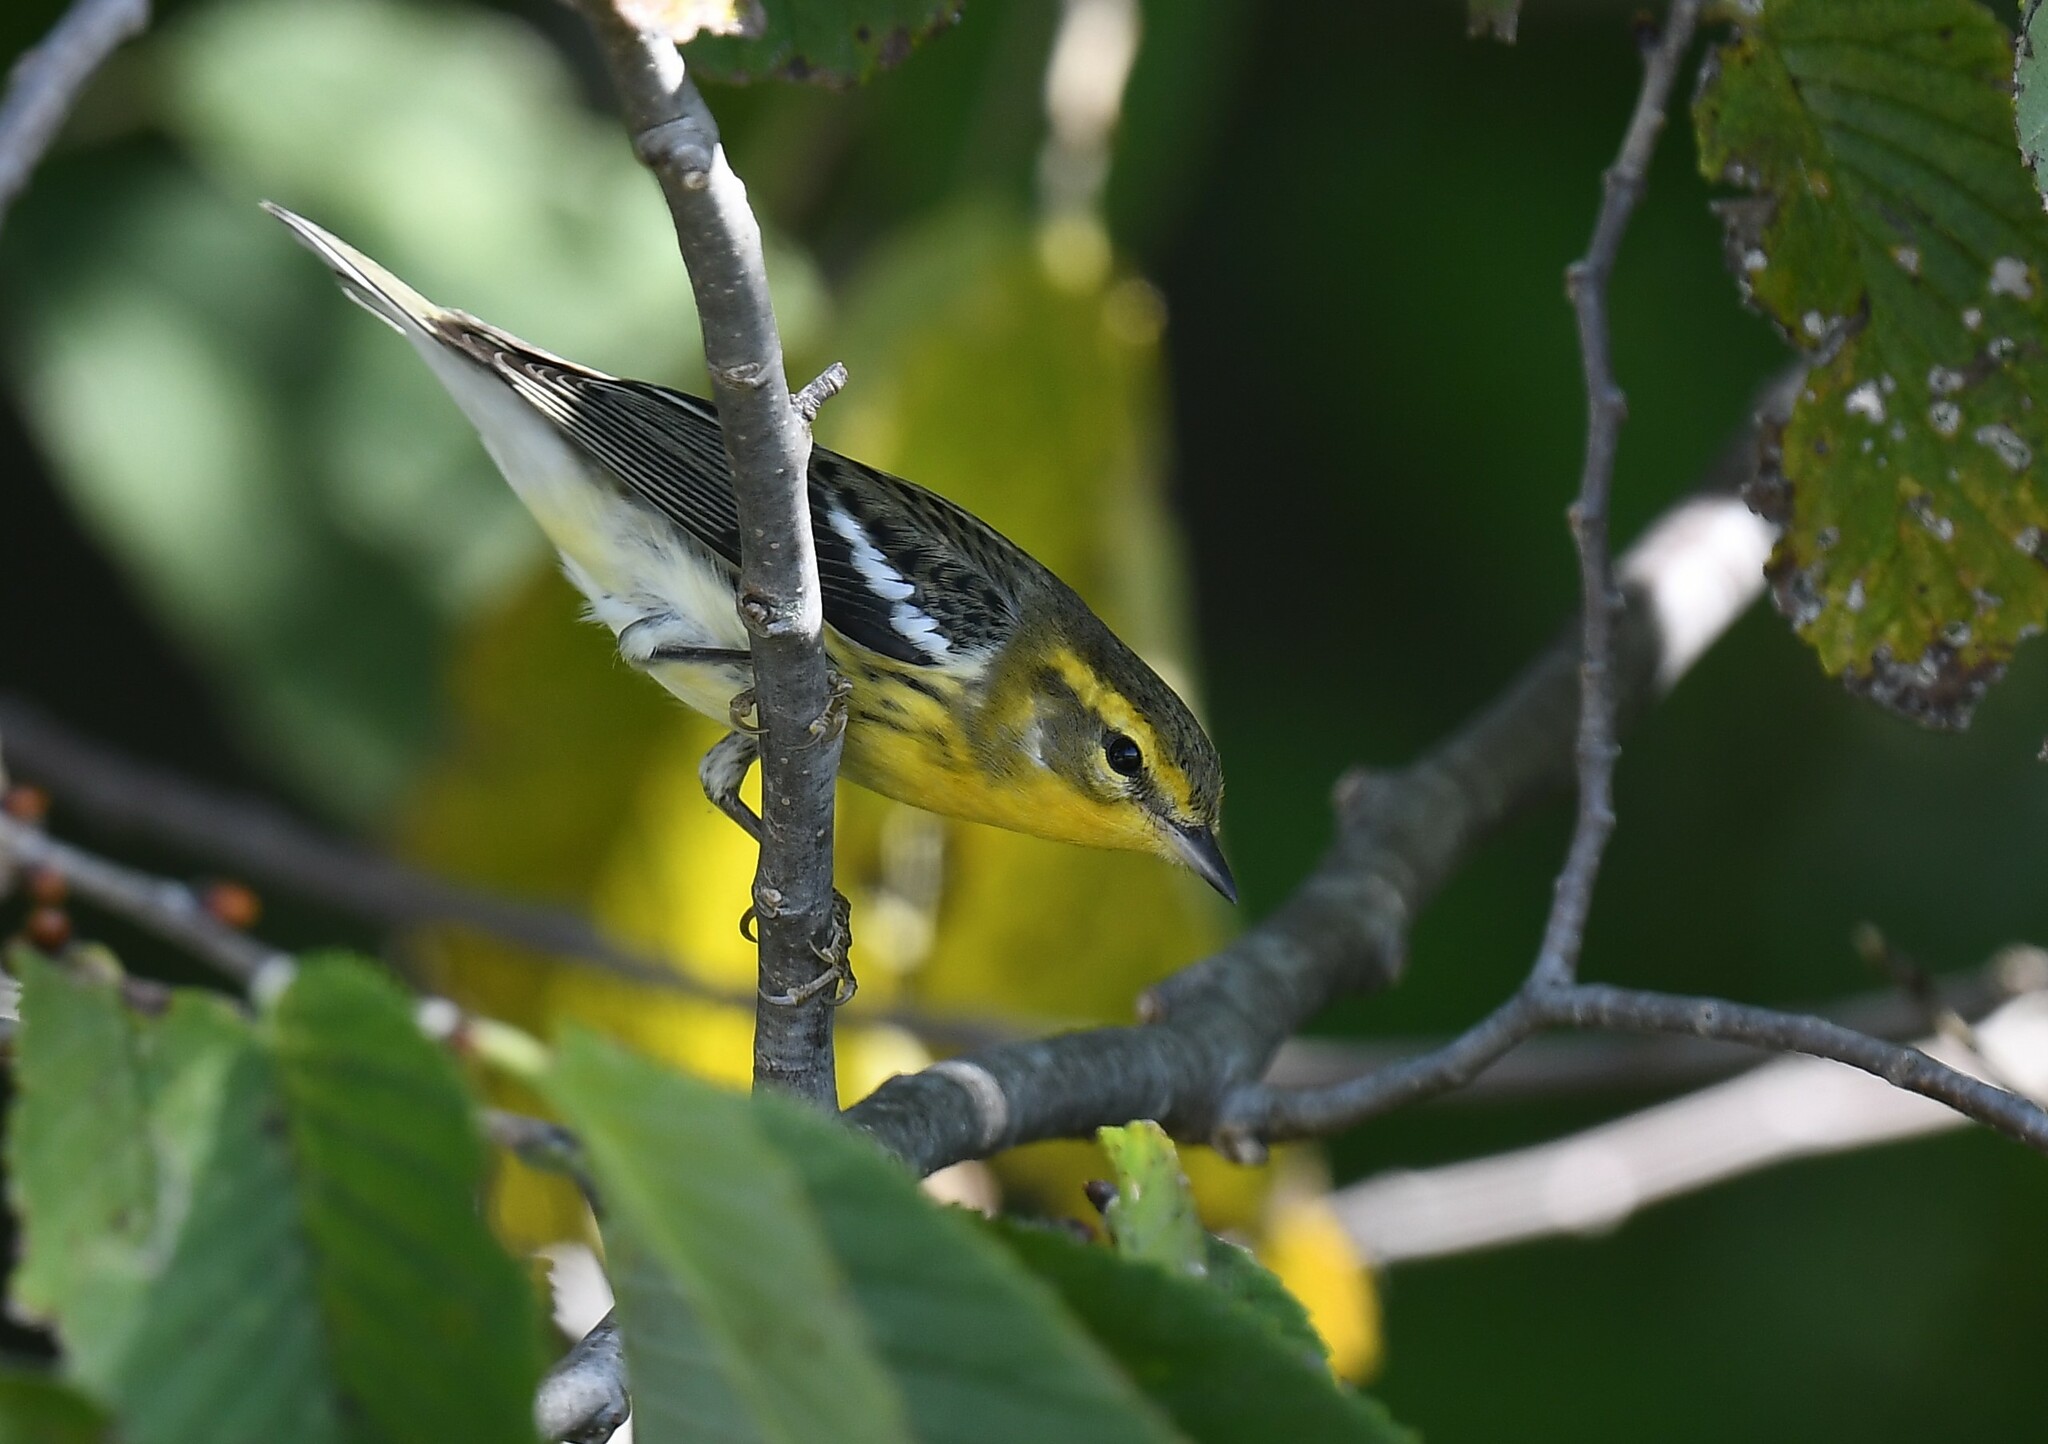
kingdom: Animalia
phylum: Chordata
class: Aves
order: Passeriformes
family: Parulidae
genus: Setophaga
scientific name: Setophaga fusca
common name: Blackburnian warbler
